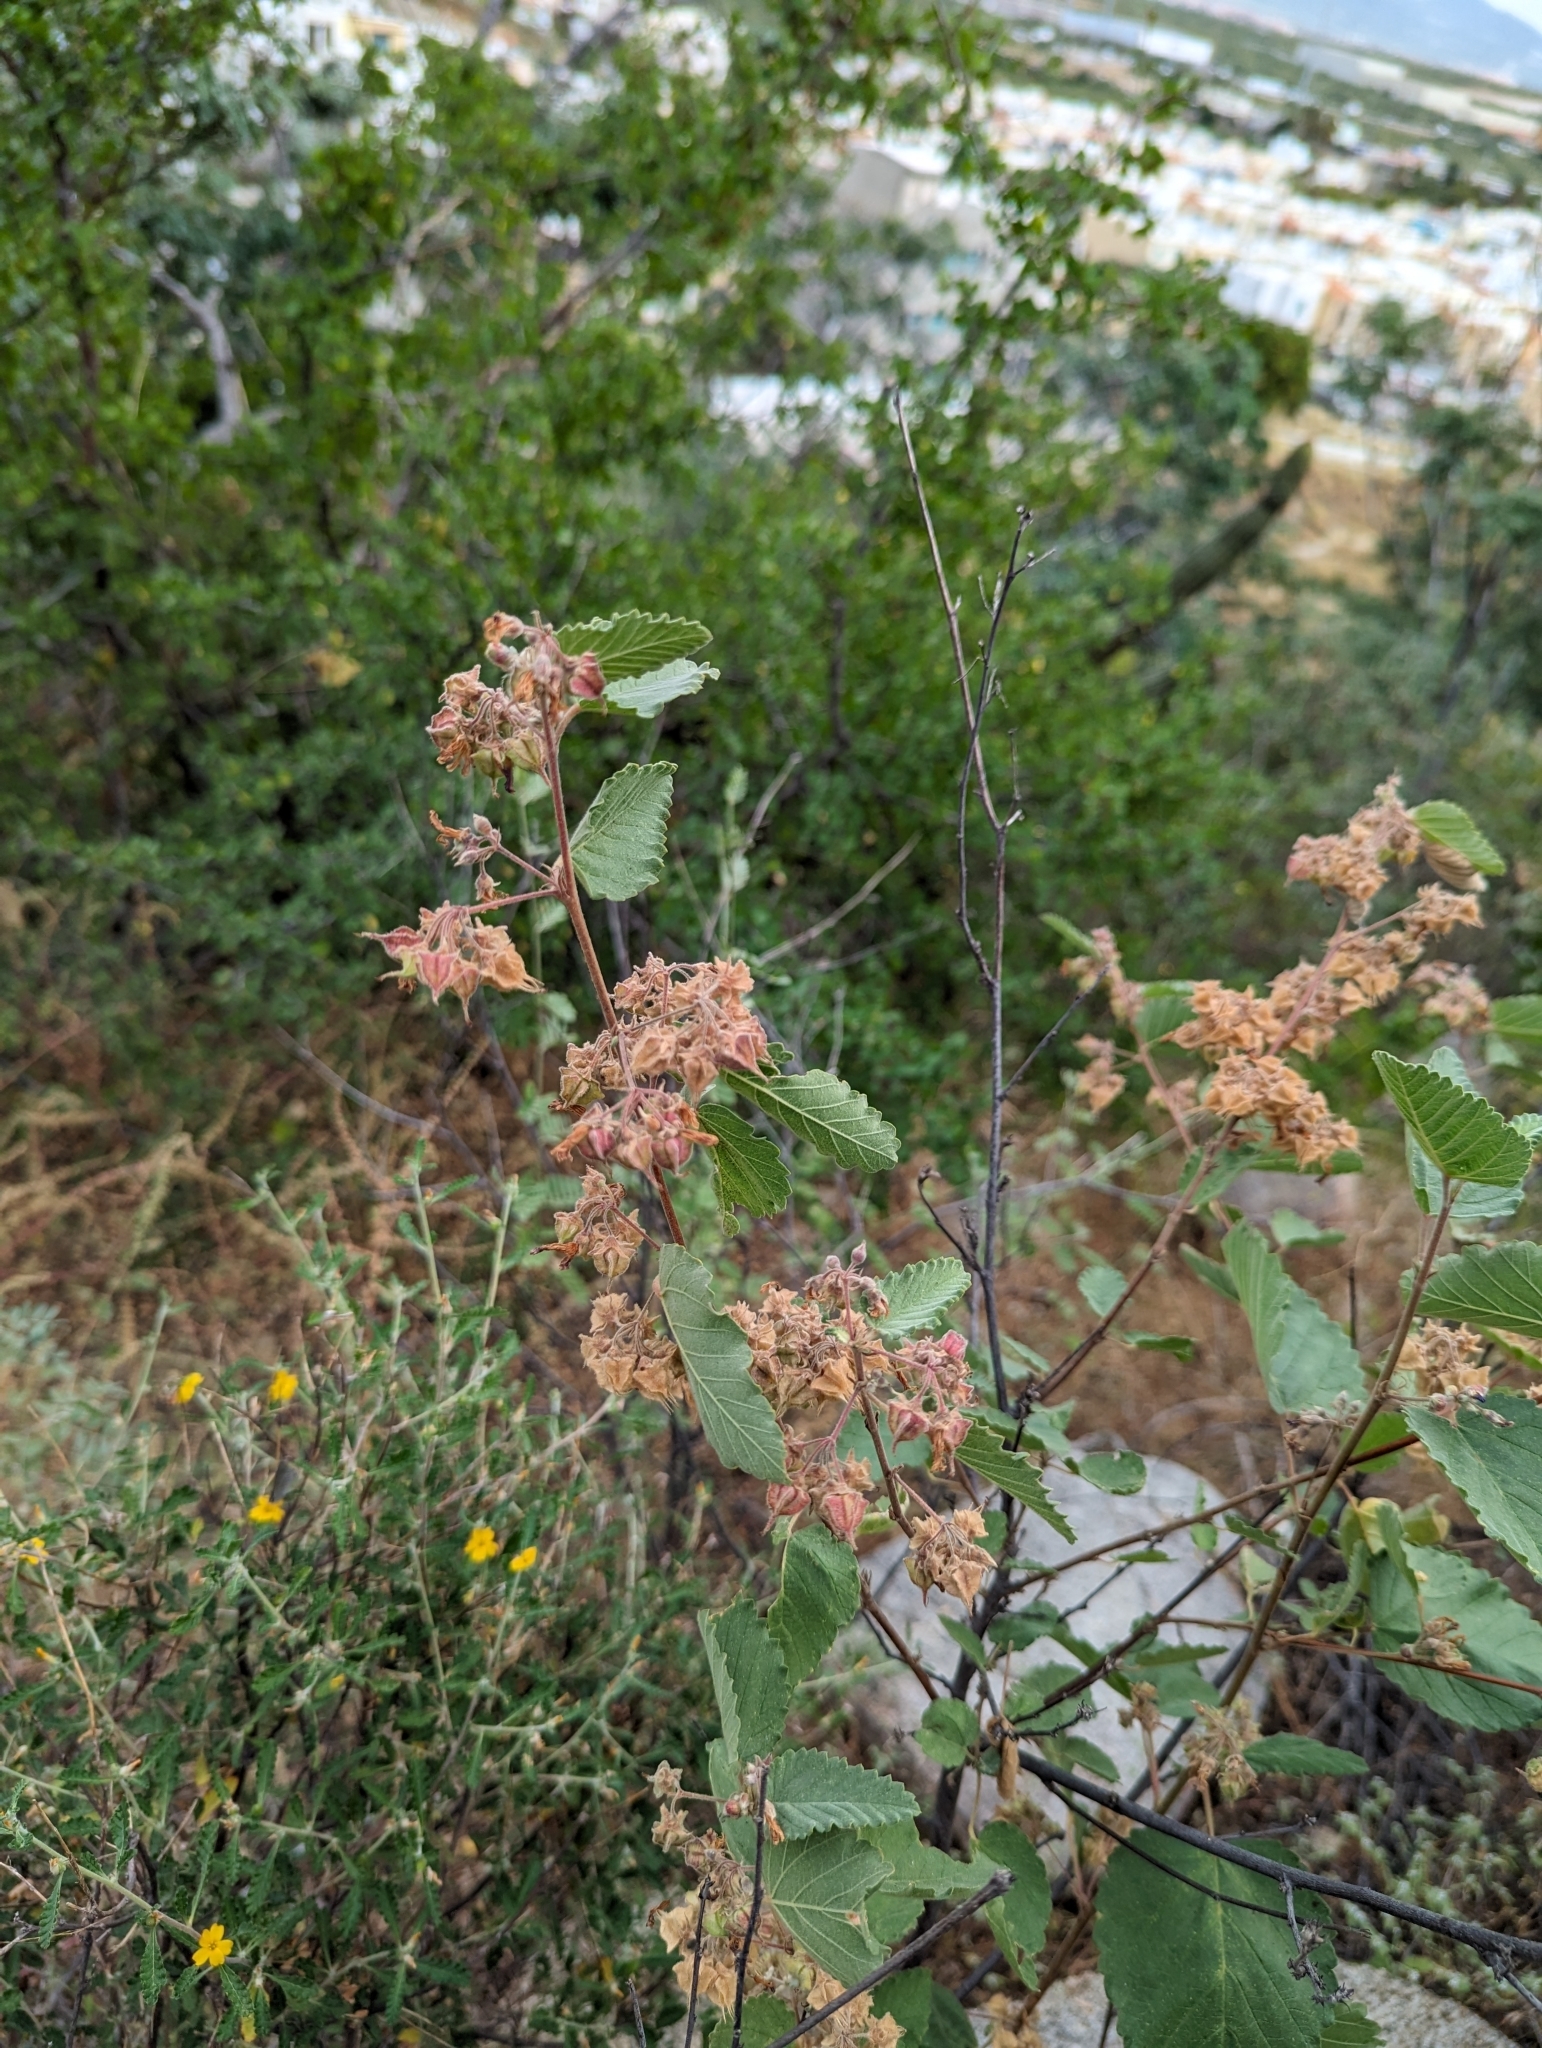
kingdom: Plantae
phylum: Tracheophyta
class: Magnoliopsida
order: Malvales
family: Malvaceae
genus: Melochia
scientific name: Melochia tomentosa
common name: Black torch
